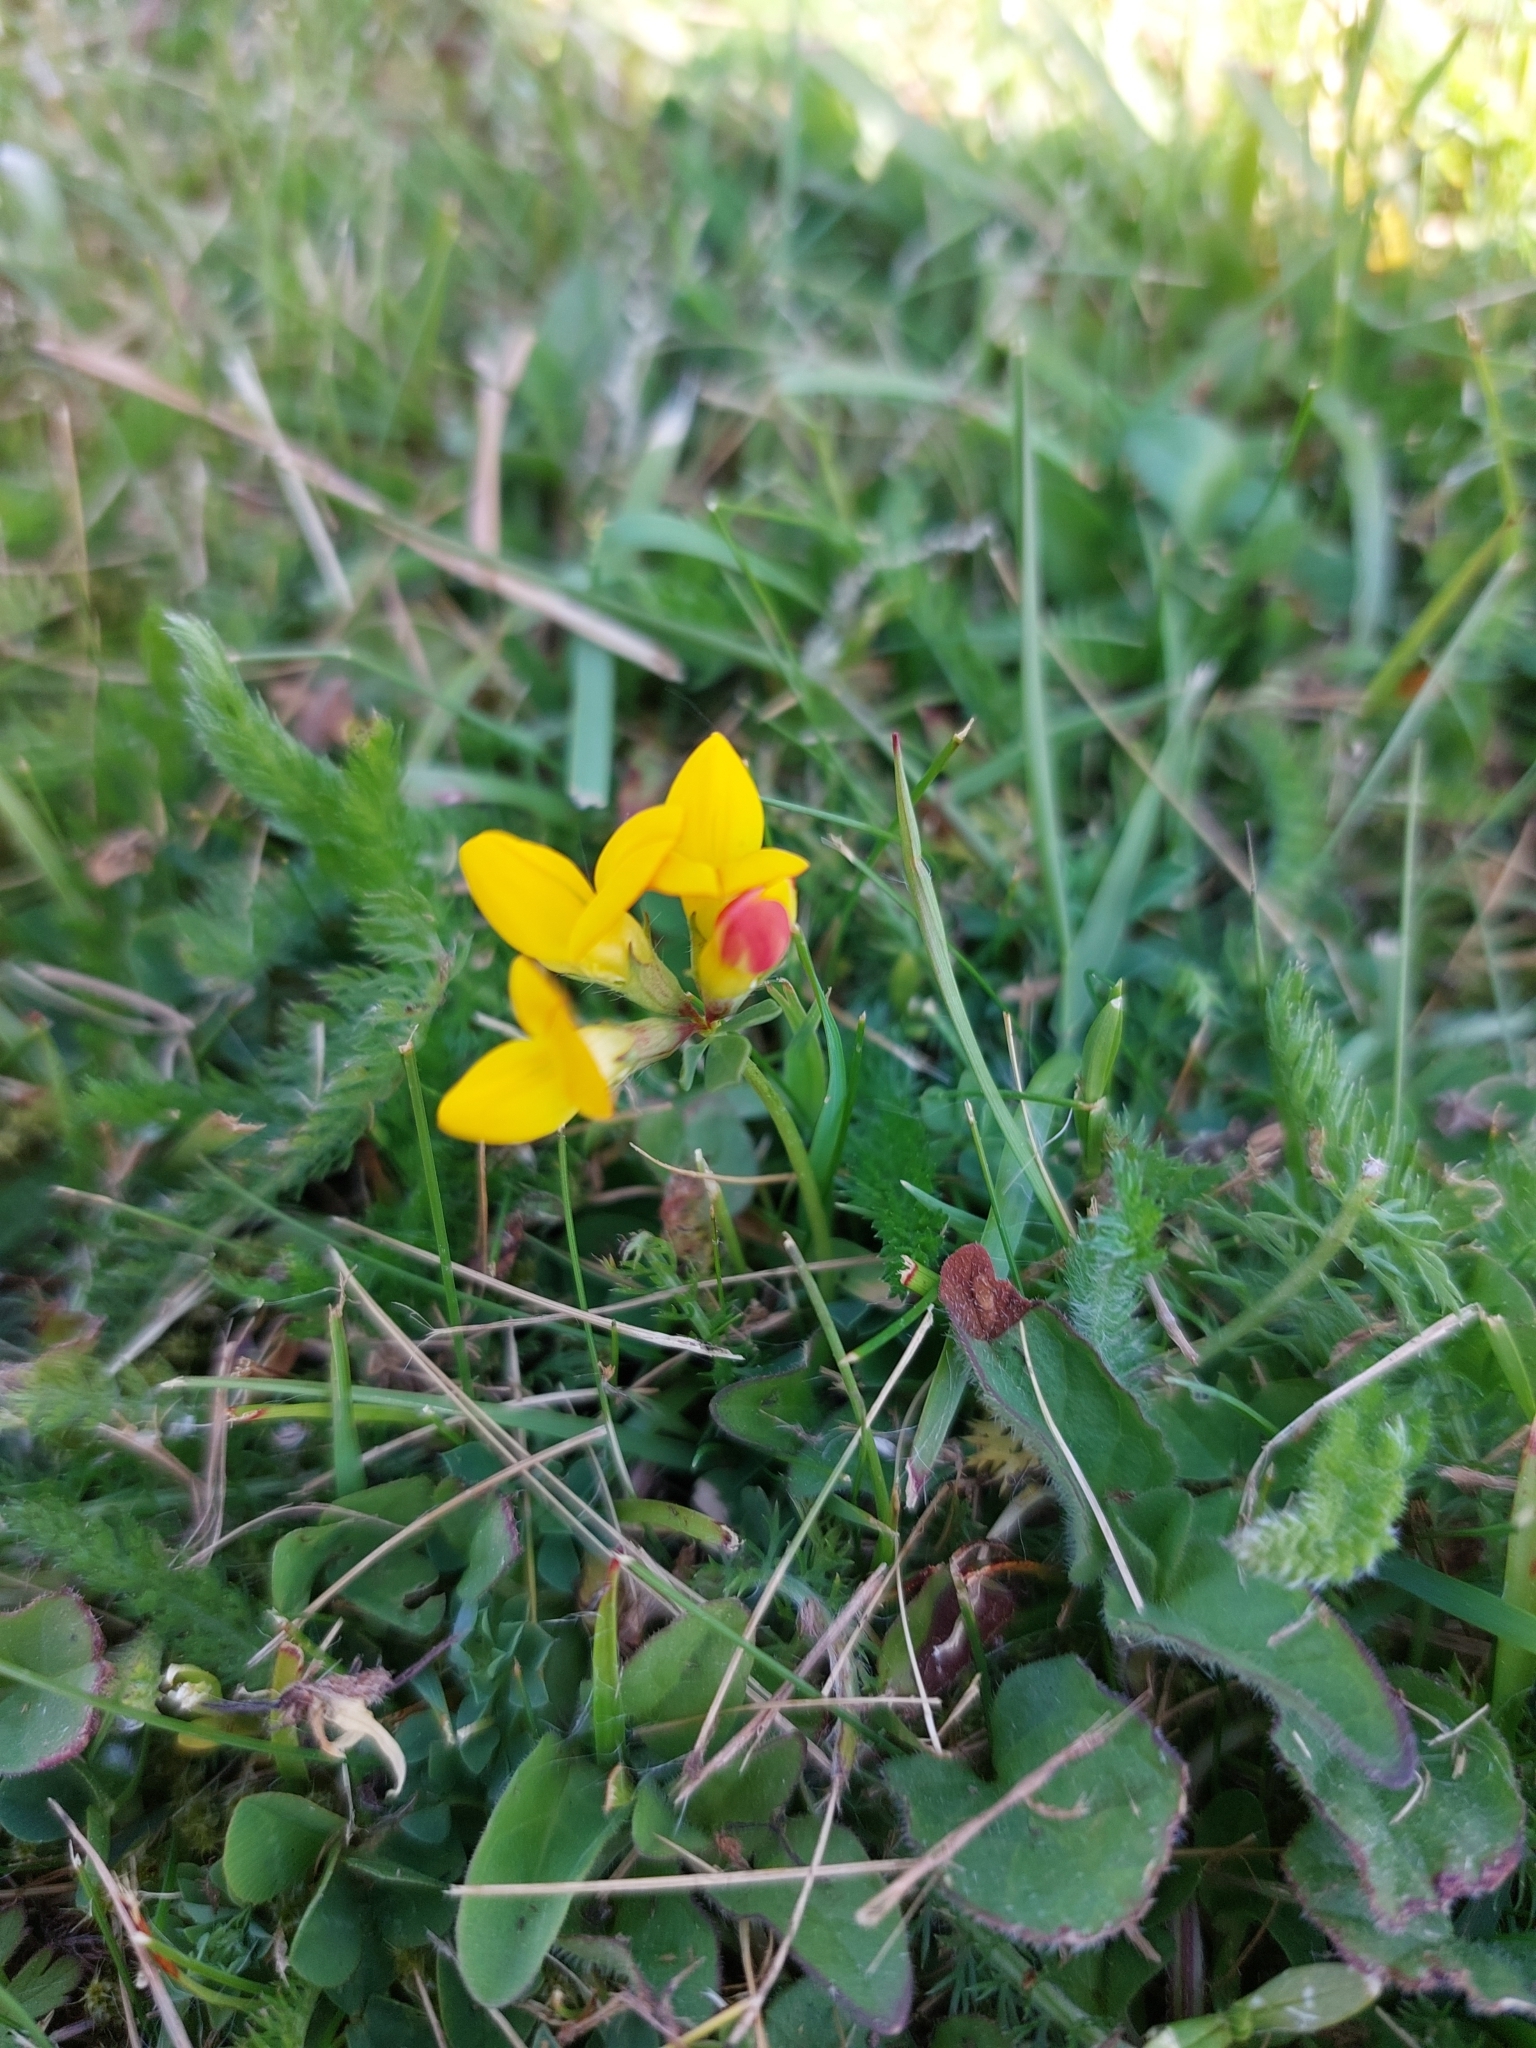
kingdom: Plantae
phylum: Tracheophyta
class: Magnoliopsida
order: Fabales
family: Fabaceae
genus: Lotus
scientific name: Lotus corniculatus
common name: Common bird's-foot-trefoil
